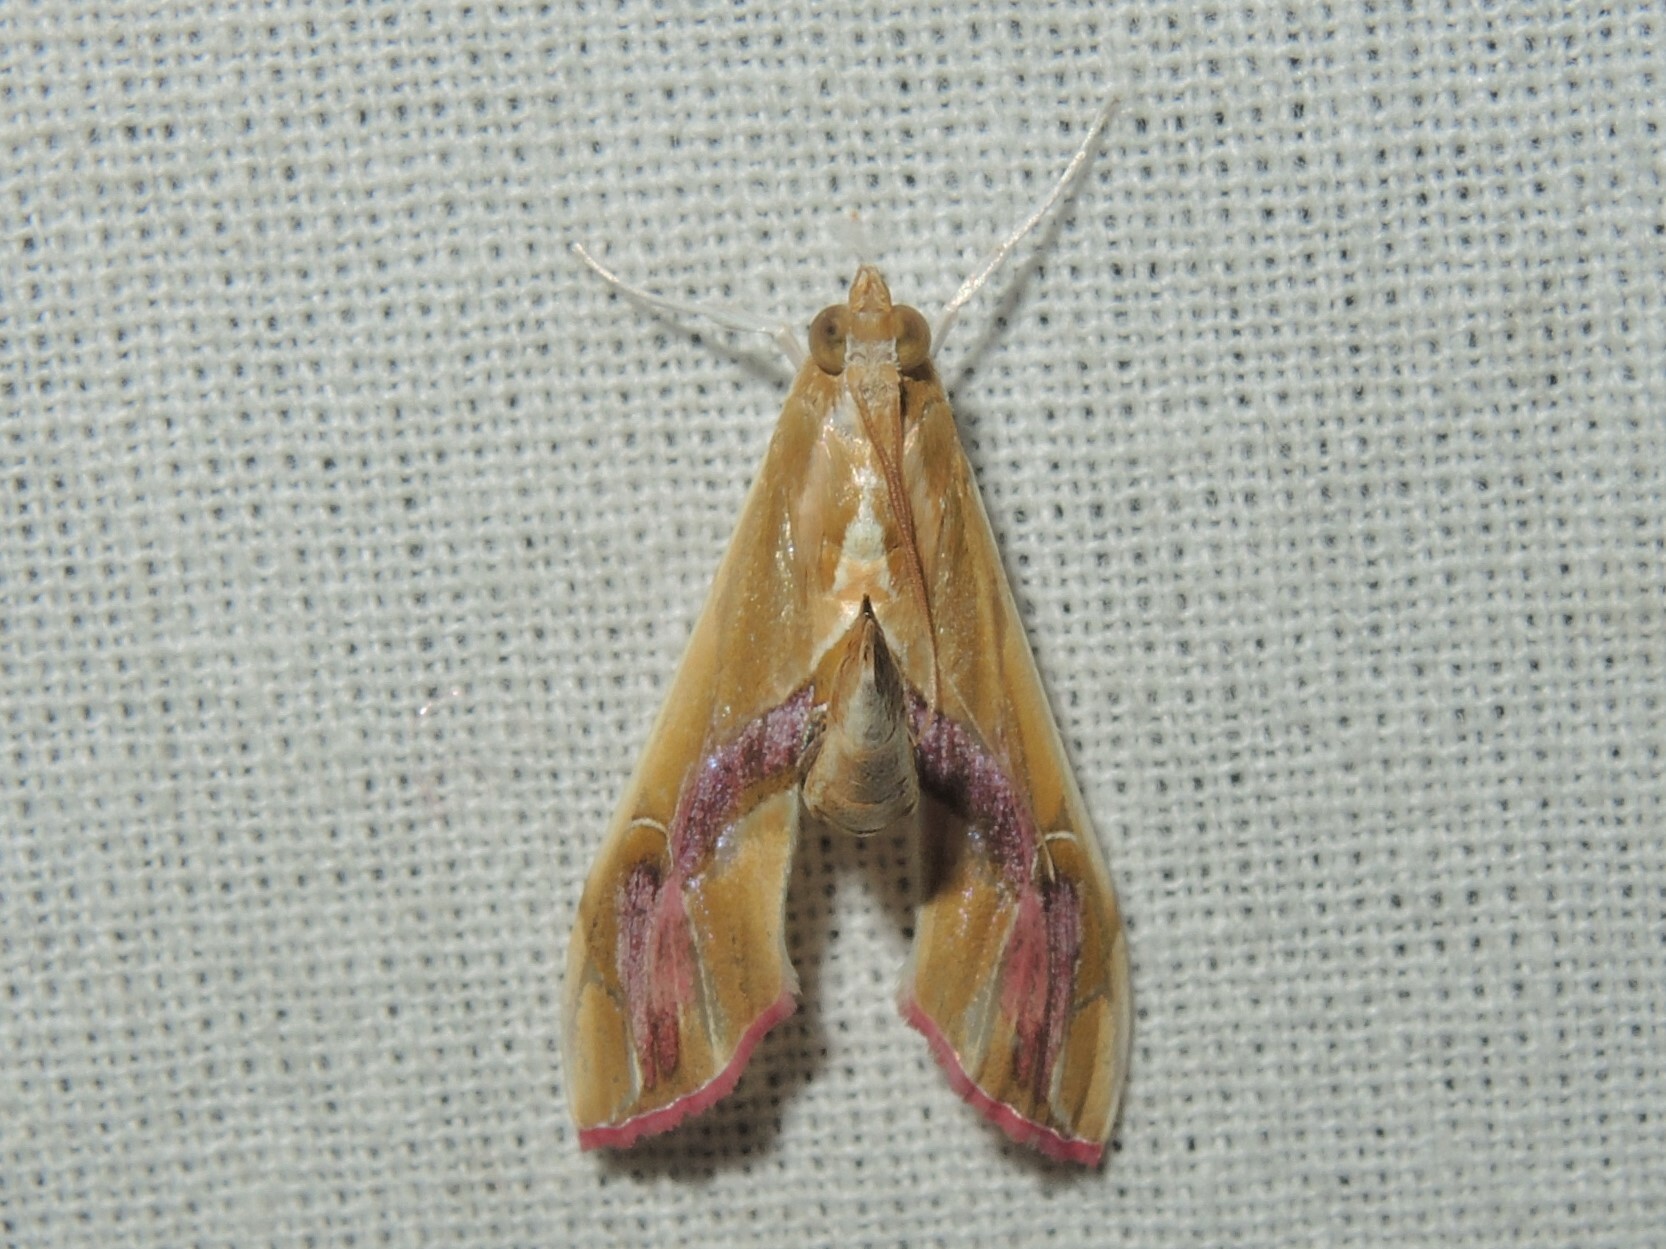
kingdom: Animalia
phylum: Arthropoda
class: Insecta
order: Lepidoptera
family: Crambidae
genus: Agathodes
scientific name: Agathodes ostentalis
